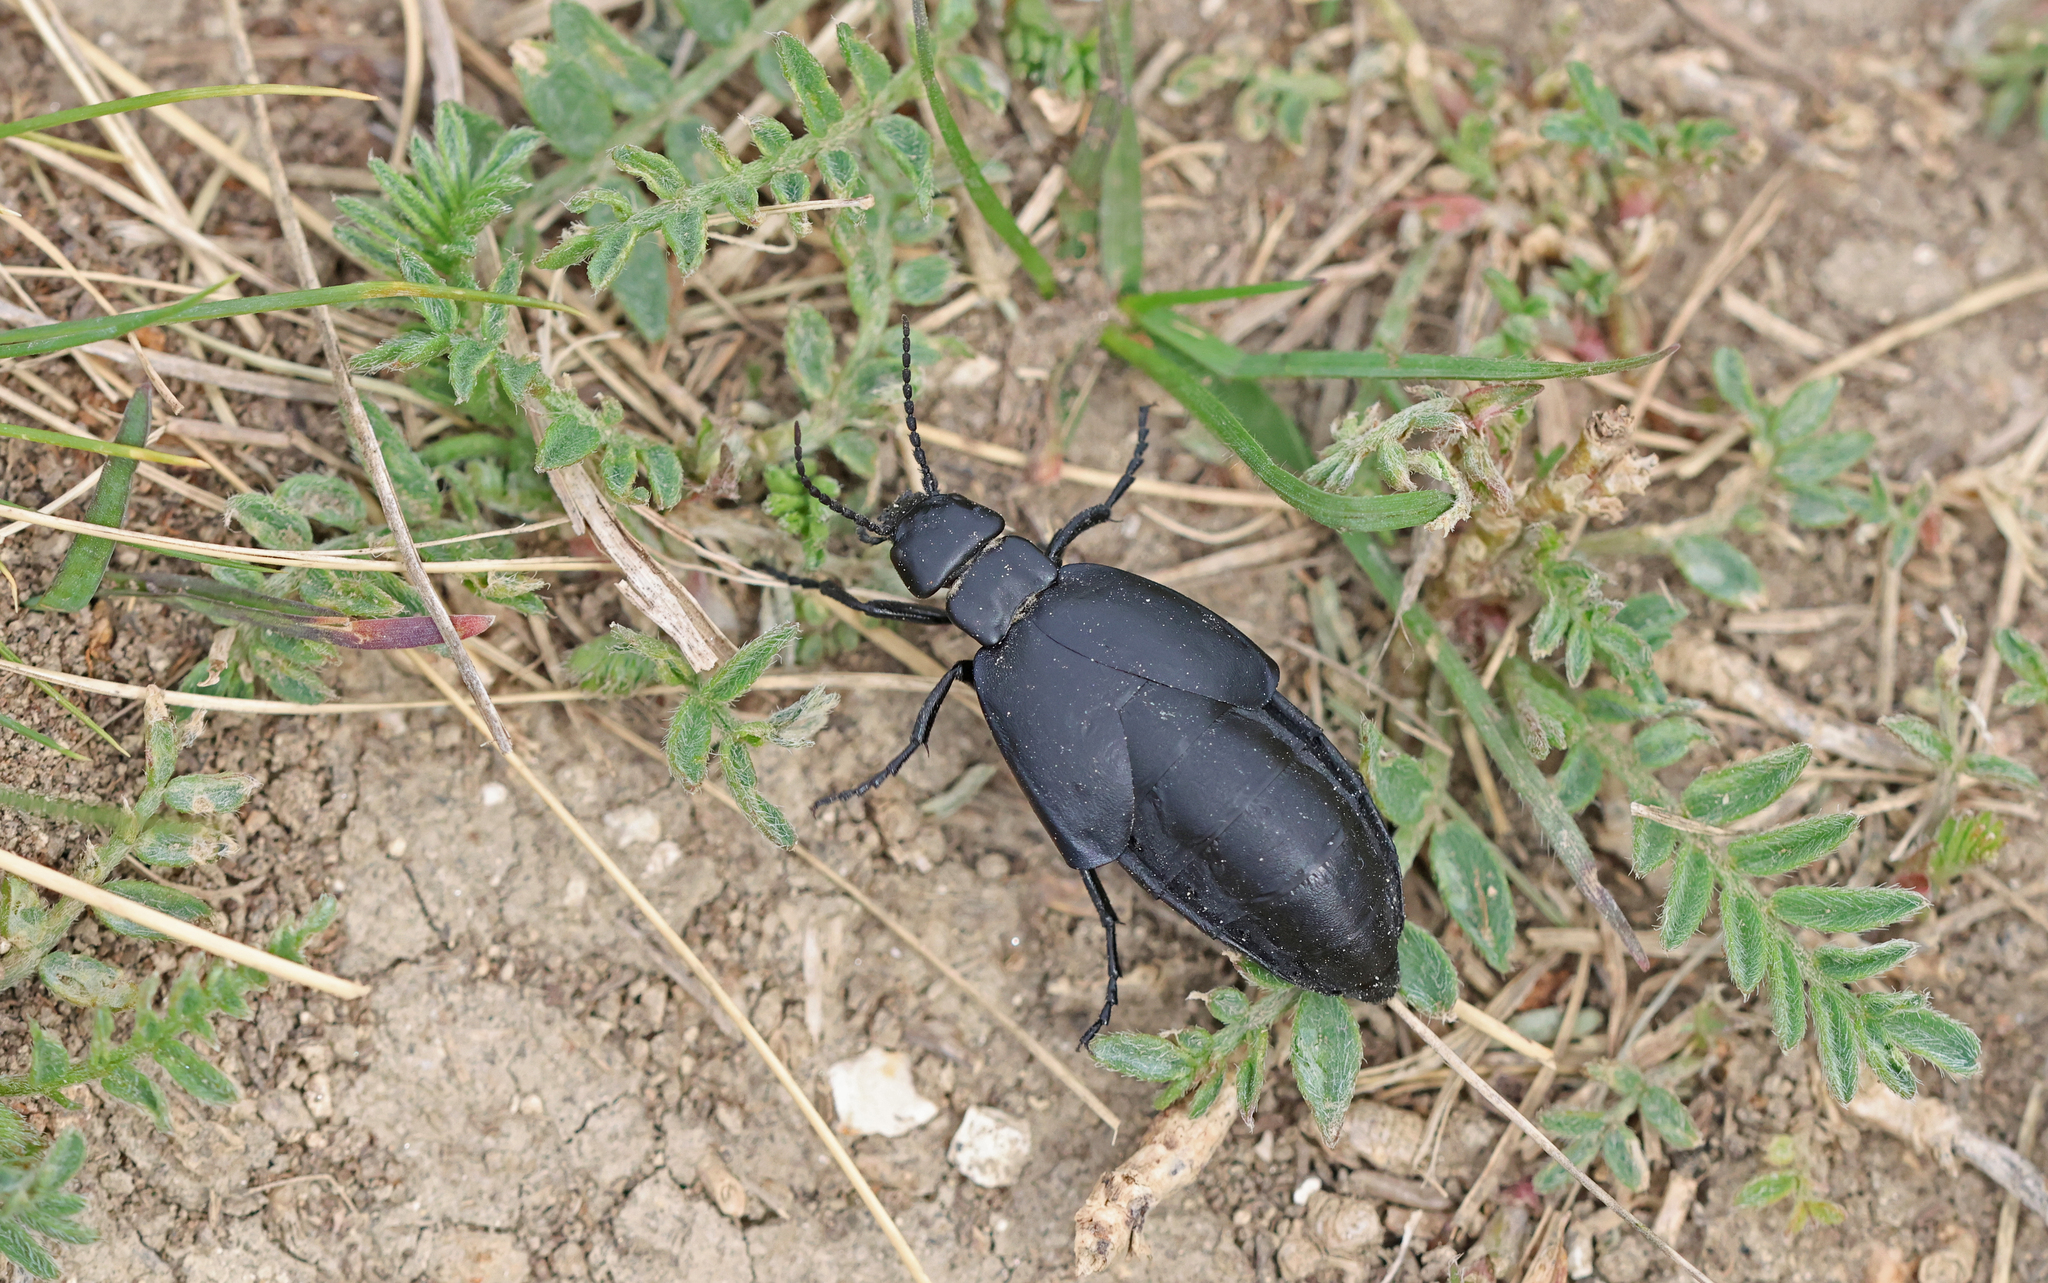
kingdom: Animalia
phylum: Arthropoda
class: Insecta
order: Coleoptera
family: Meloidae
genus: Meloe
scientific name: Meloe uralensis
